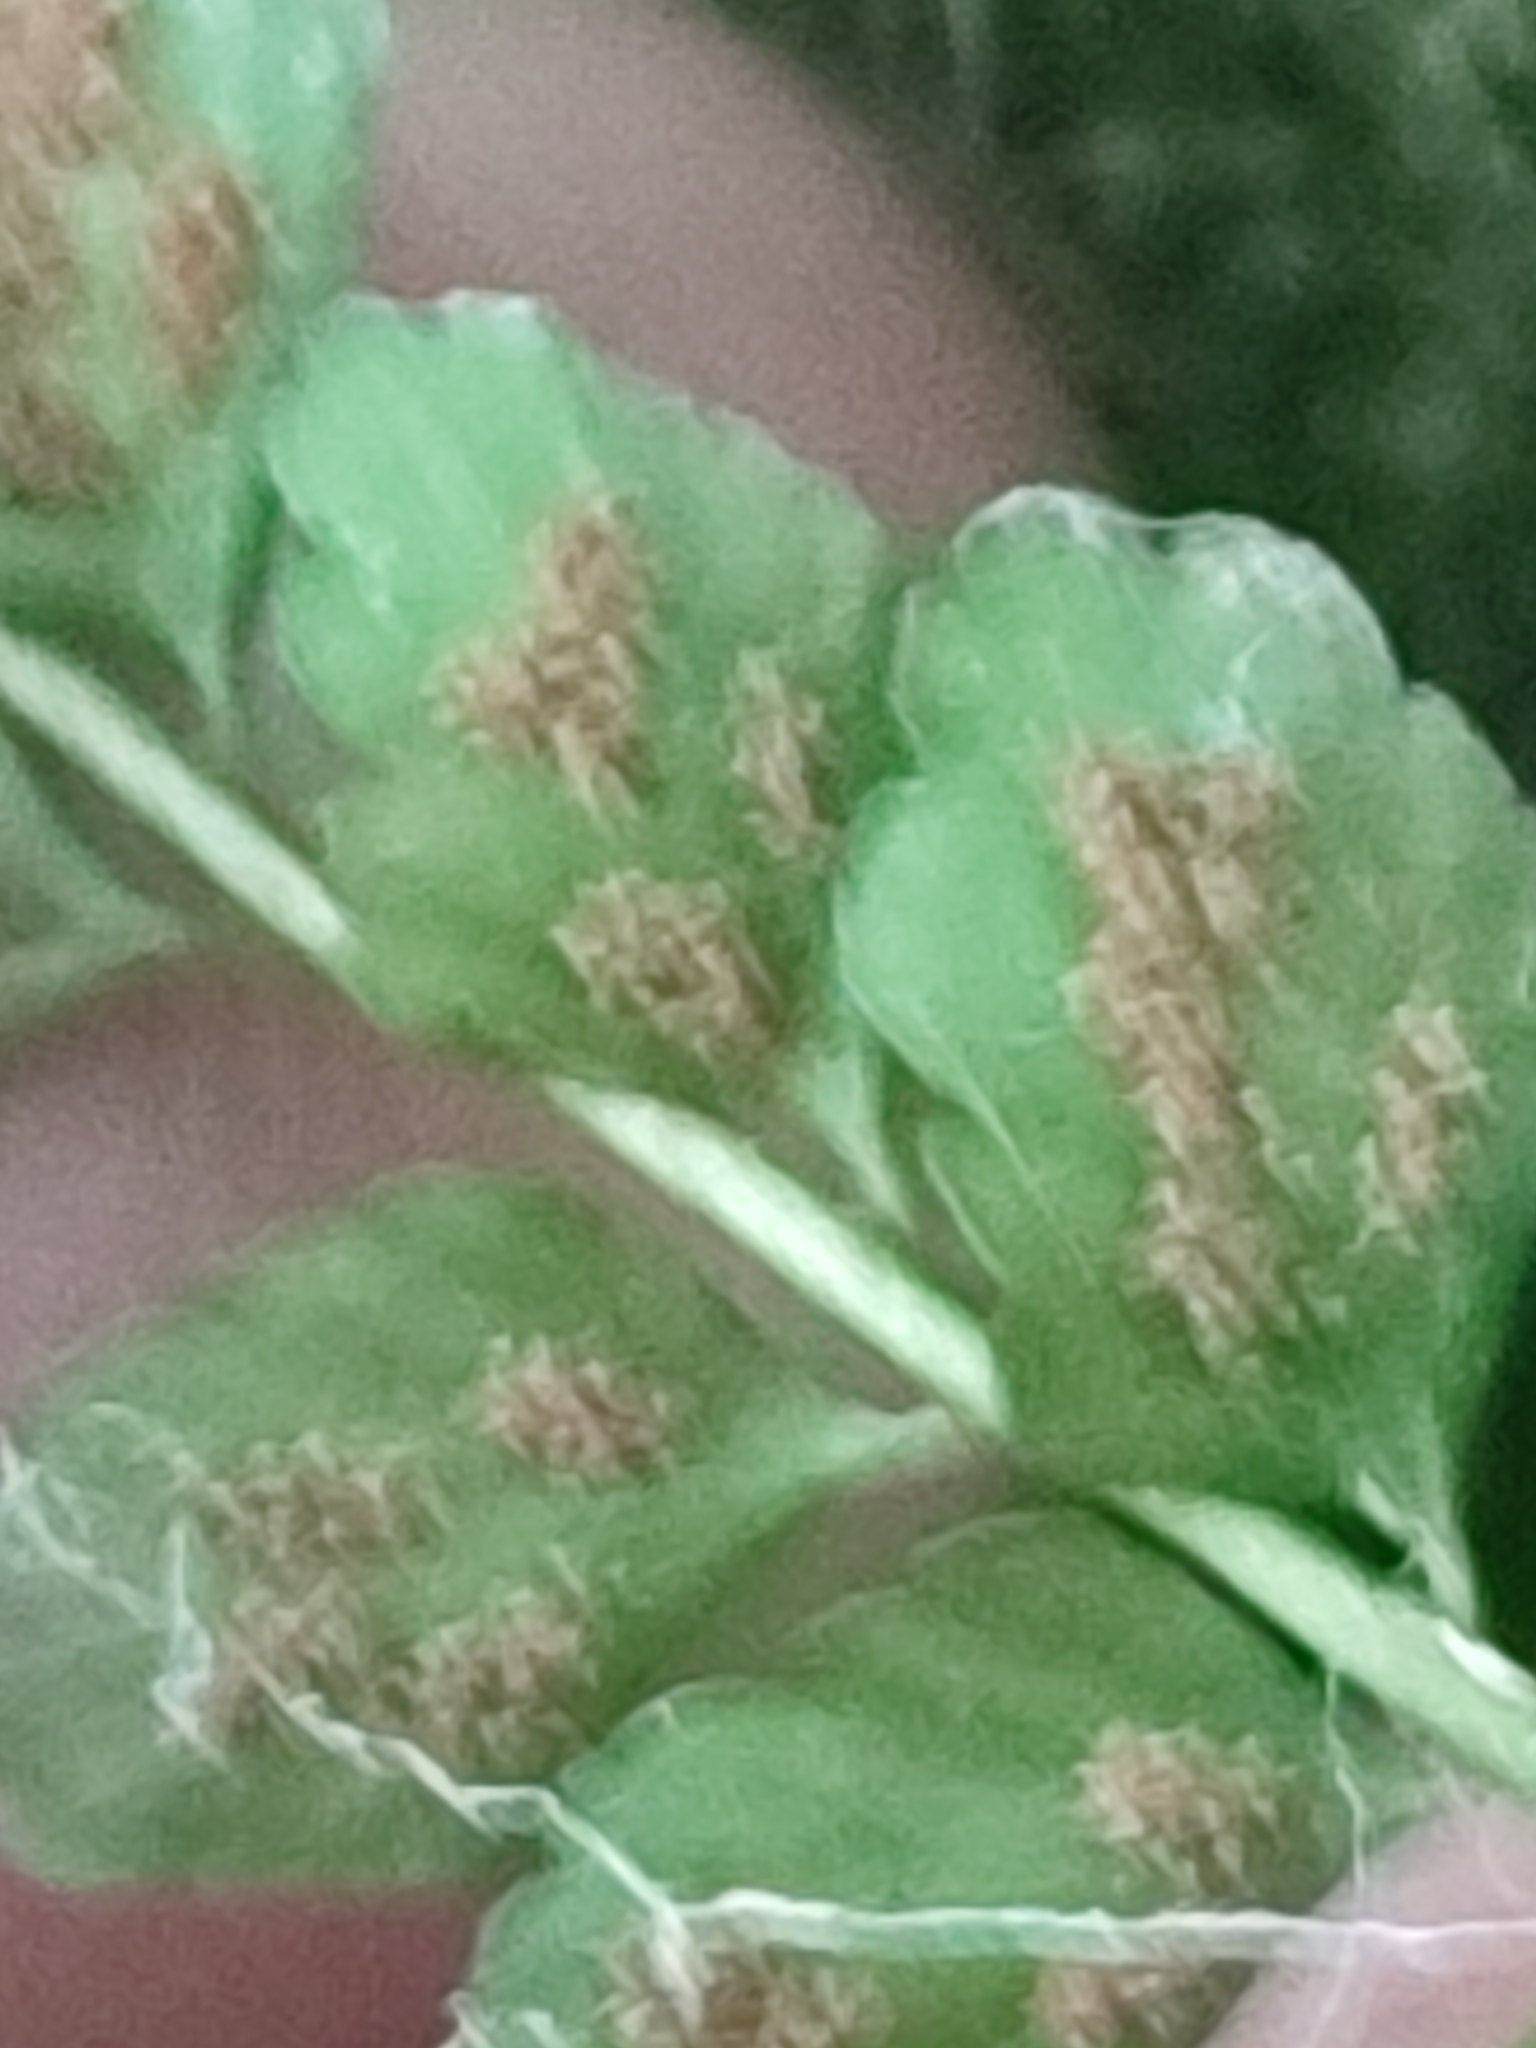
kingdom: Plantae
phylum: Tracheophyta
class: Polypodiopsida
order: Polypodiales
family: Aspleniaceae
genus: Asplenium
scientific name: Asplenium viride
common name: Green spleenwort
